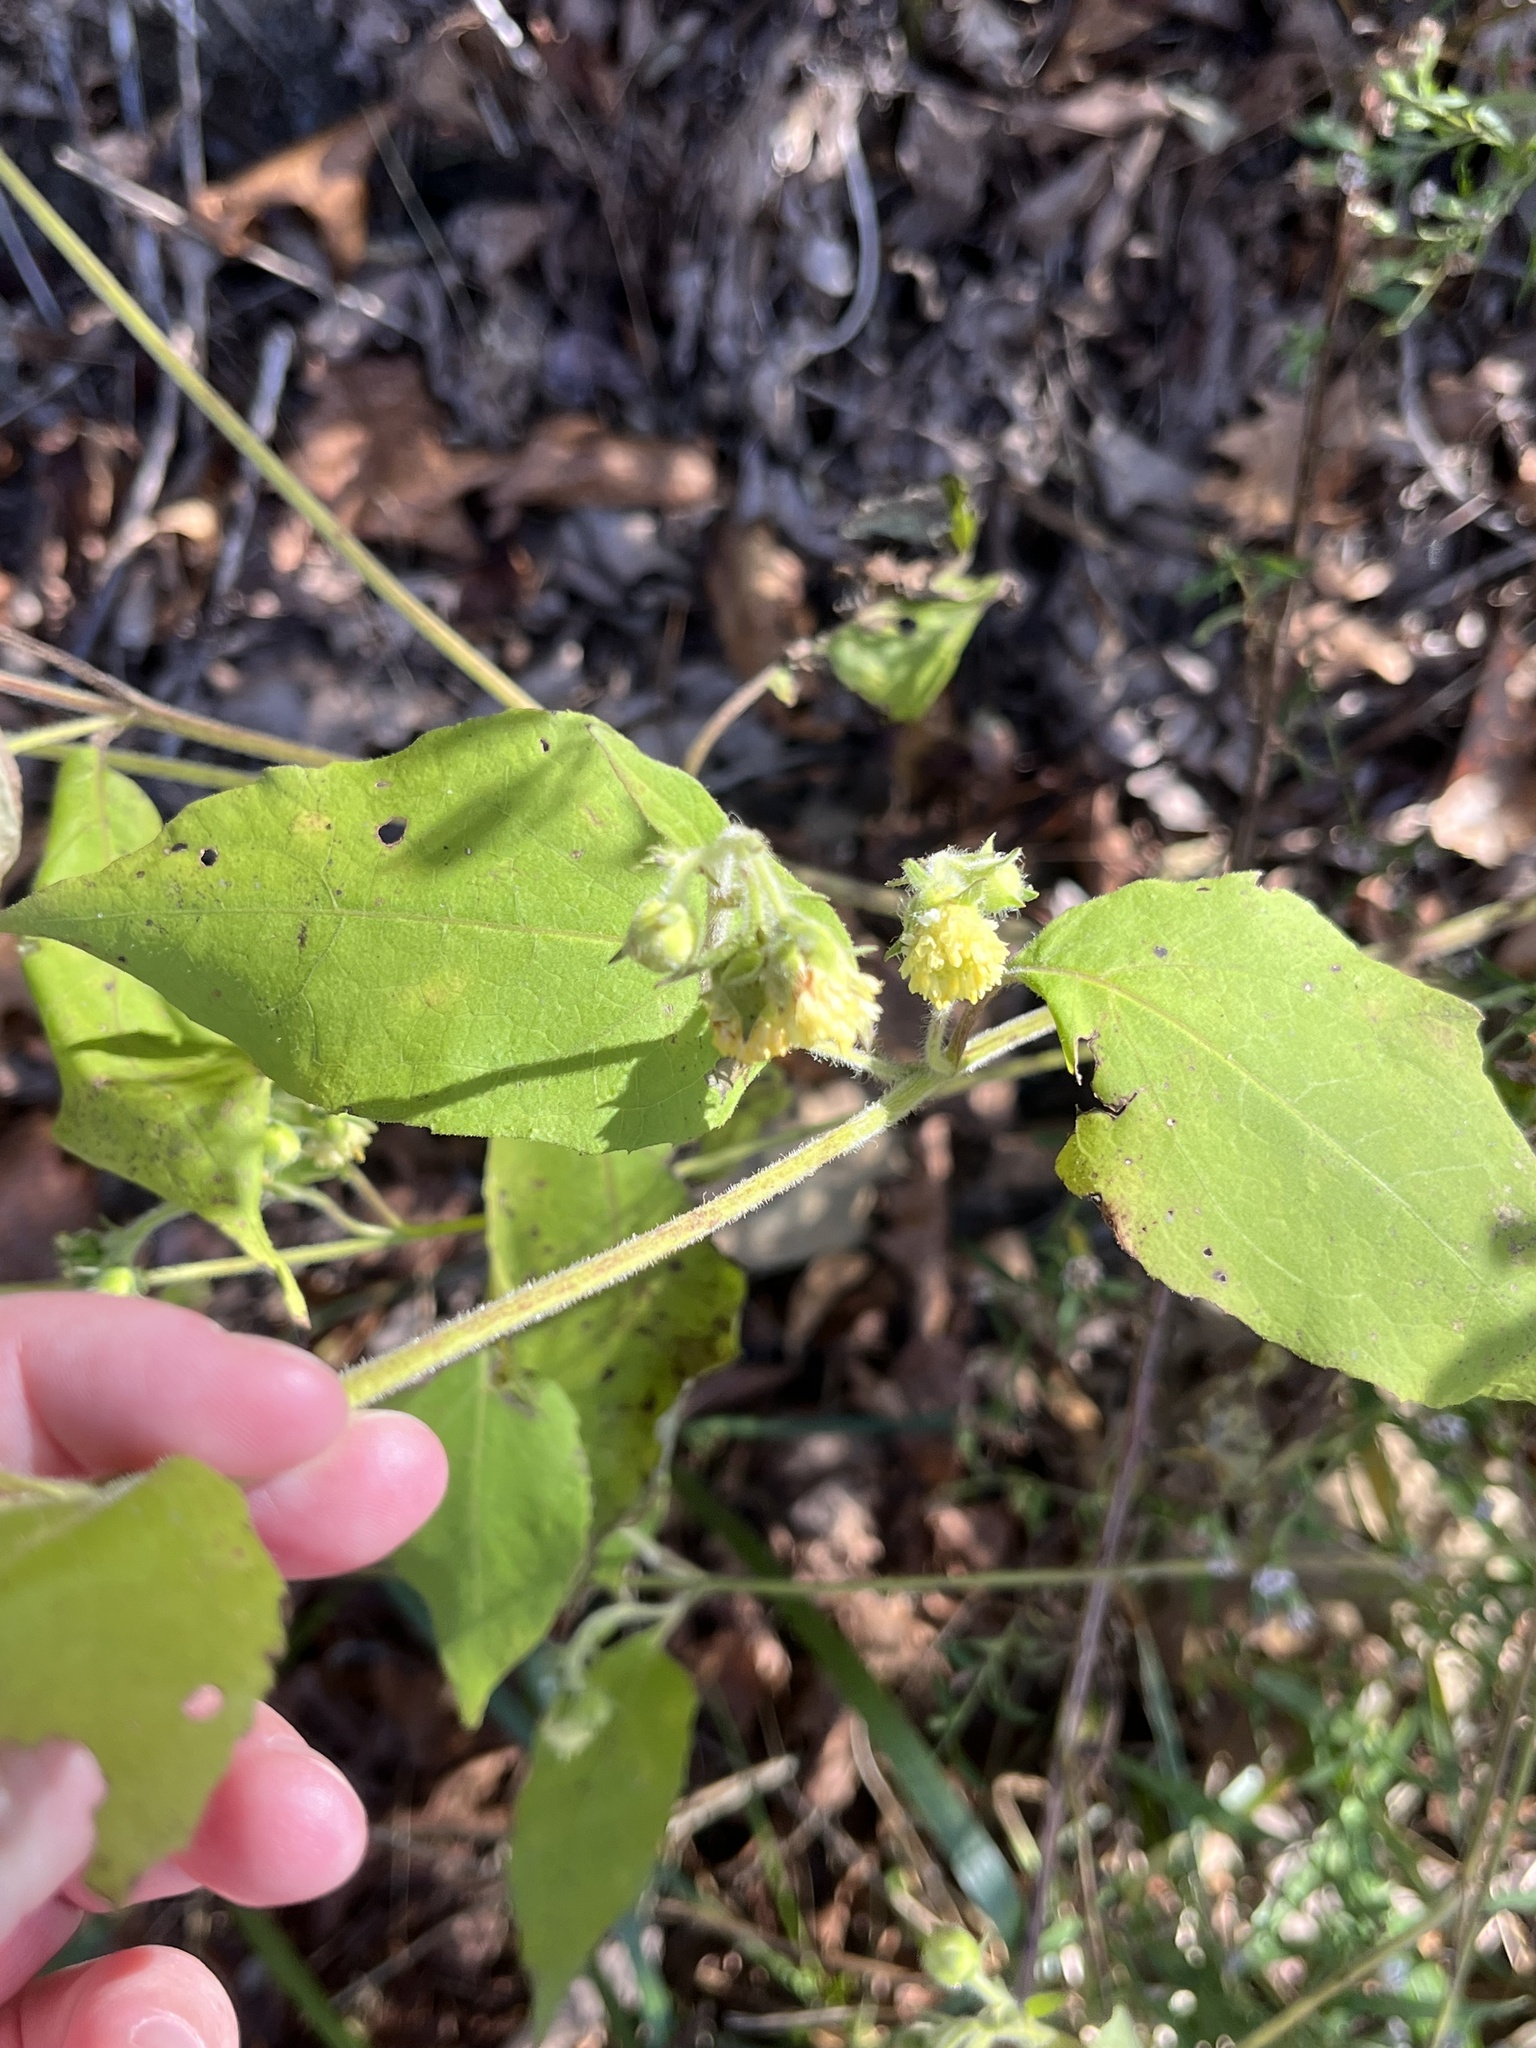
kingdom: Plantae
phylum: Tracheophyta
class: Magnoliopsida
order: Asterales
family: Asteraceae
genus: Polymnia
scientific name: Polymnia canadensis
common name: Pale-flowered leafcup
